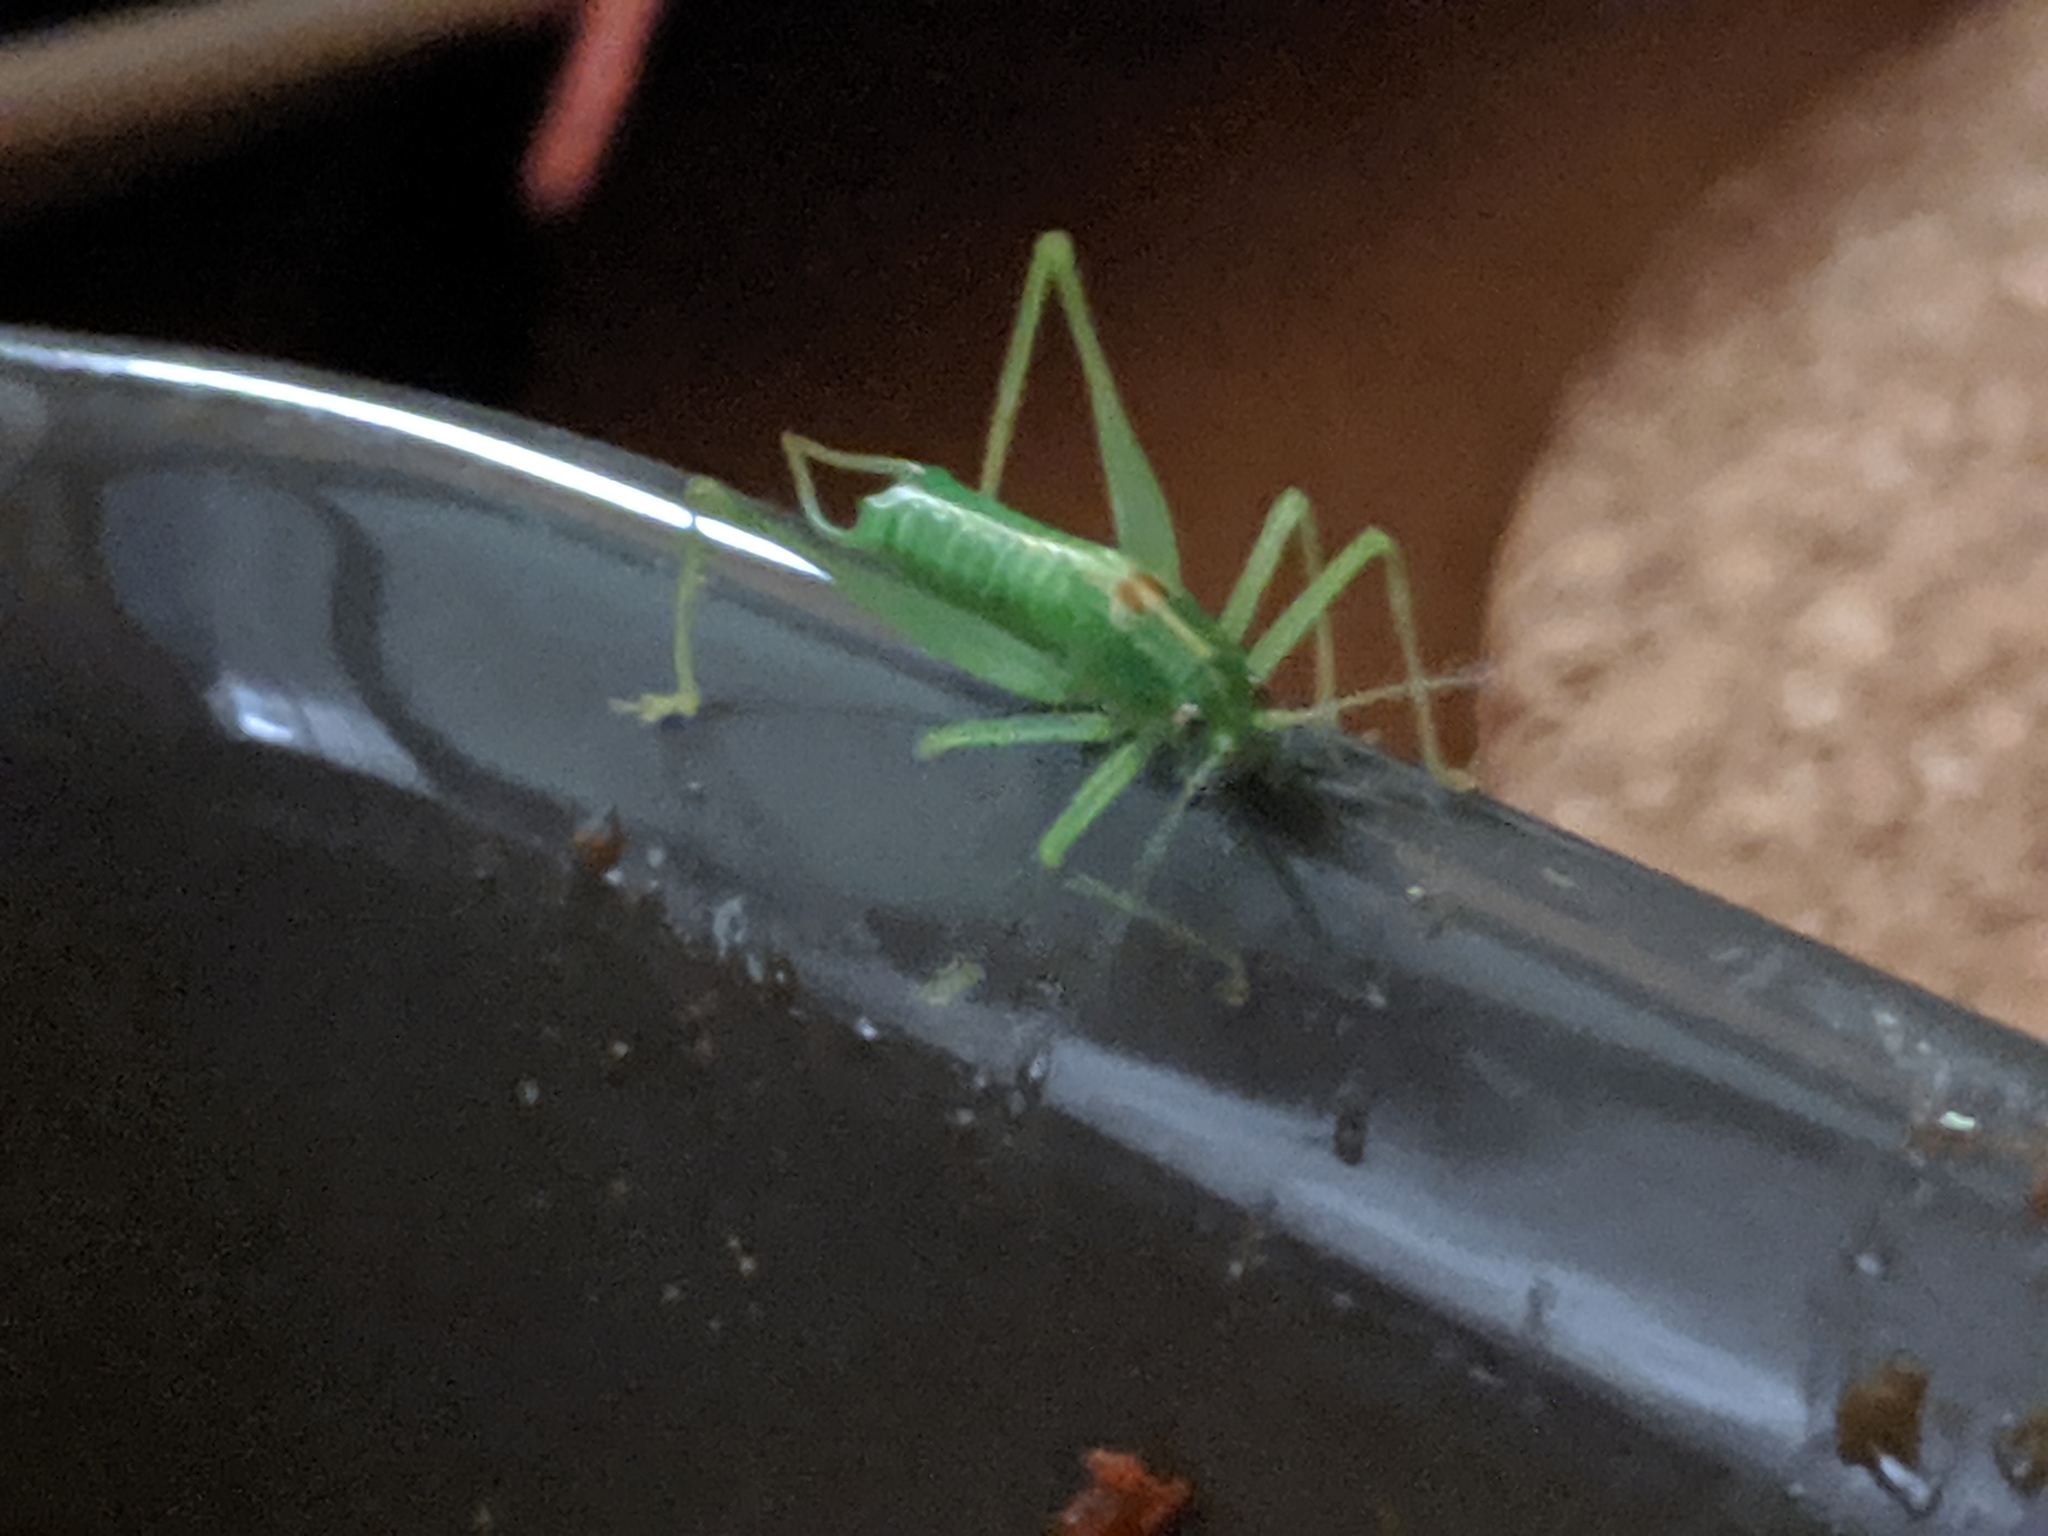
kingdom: Animalia
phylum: Arthropoda
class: Insecta
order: Orthoptera
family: Tettigoniidae
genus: Meconema
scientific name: Meconema meridionale
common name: Southern oak bush-cricket
